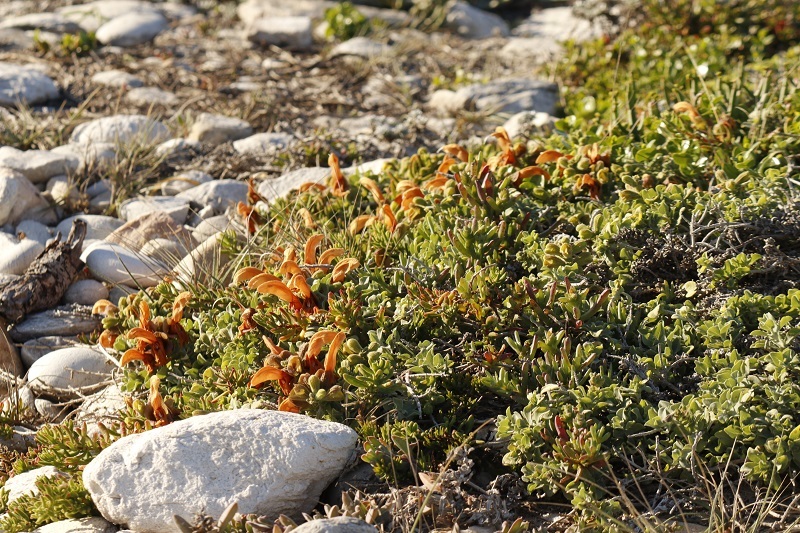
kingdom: Plantae
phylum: Tracheophyta
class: Magnoliopsida
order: Lamiales
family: Lamiaceae
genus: Salvia
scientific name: Salvia aurea
